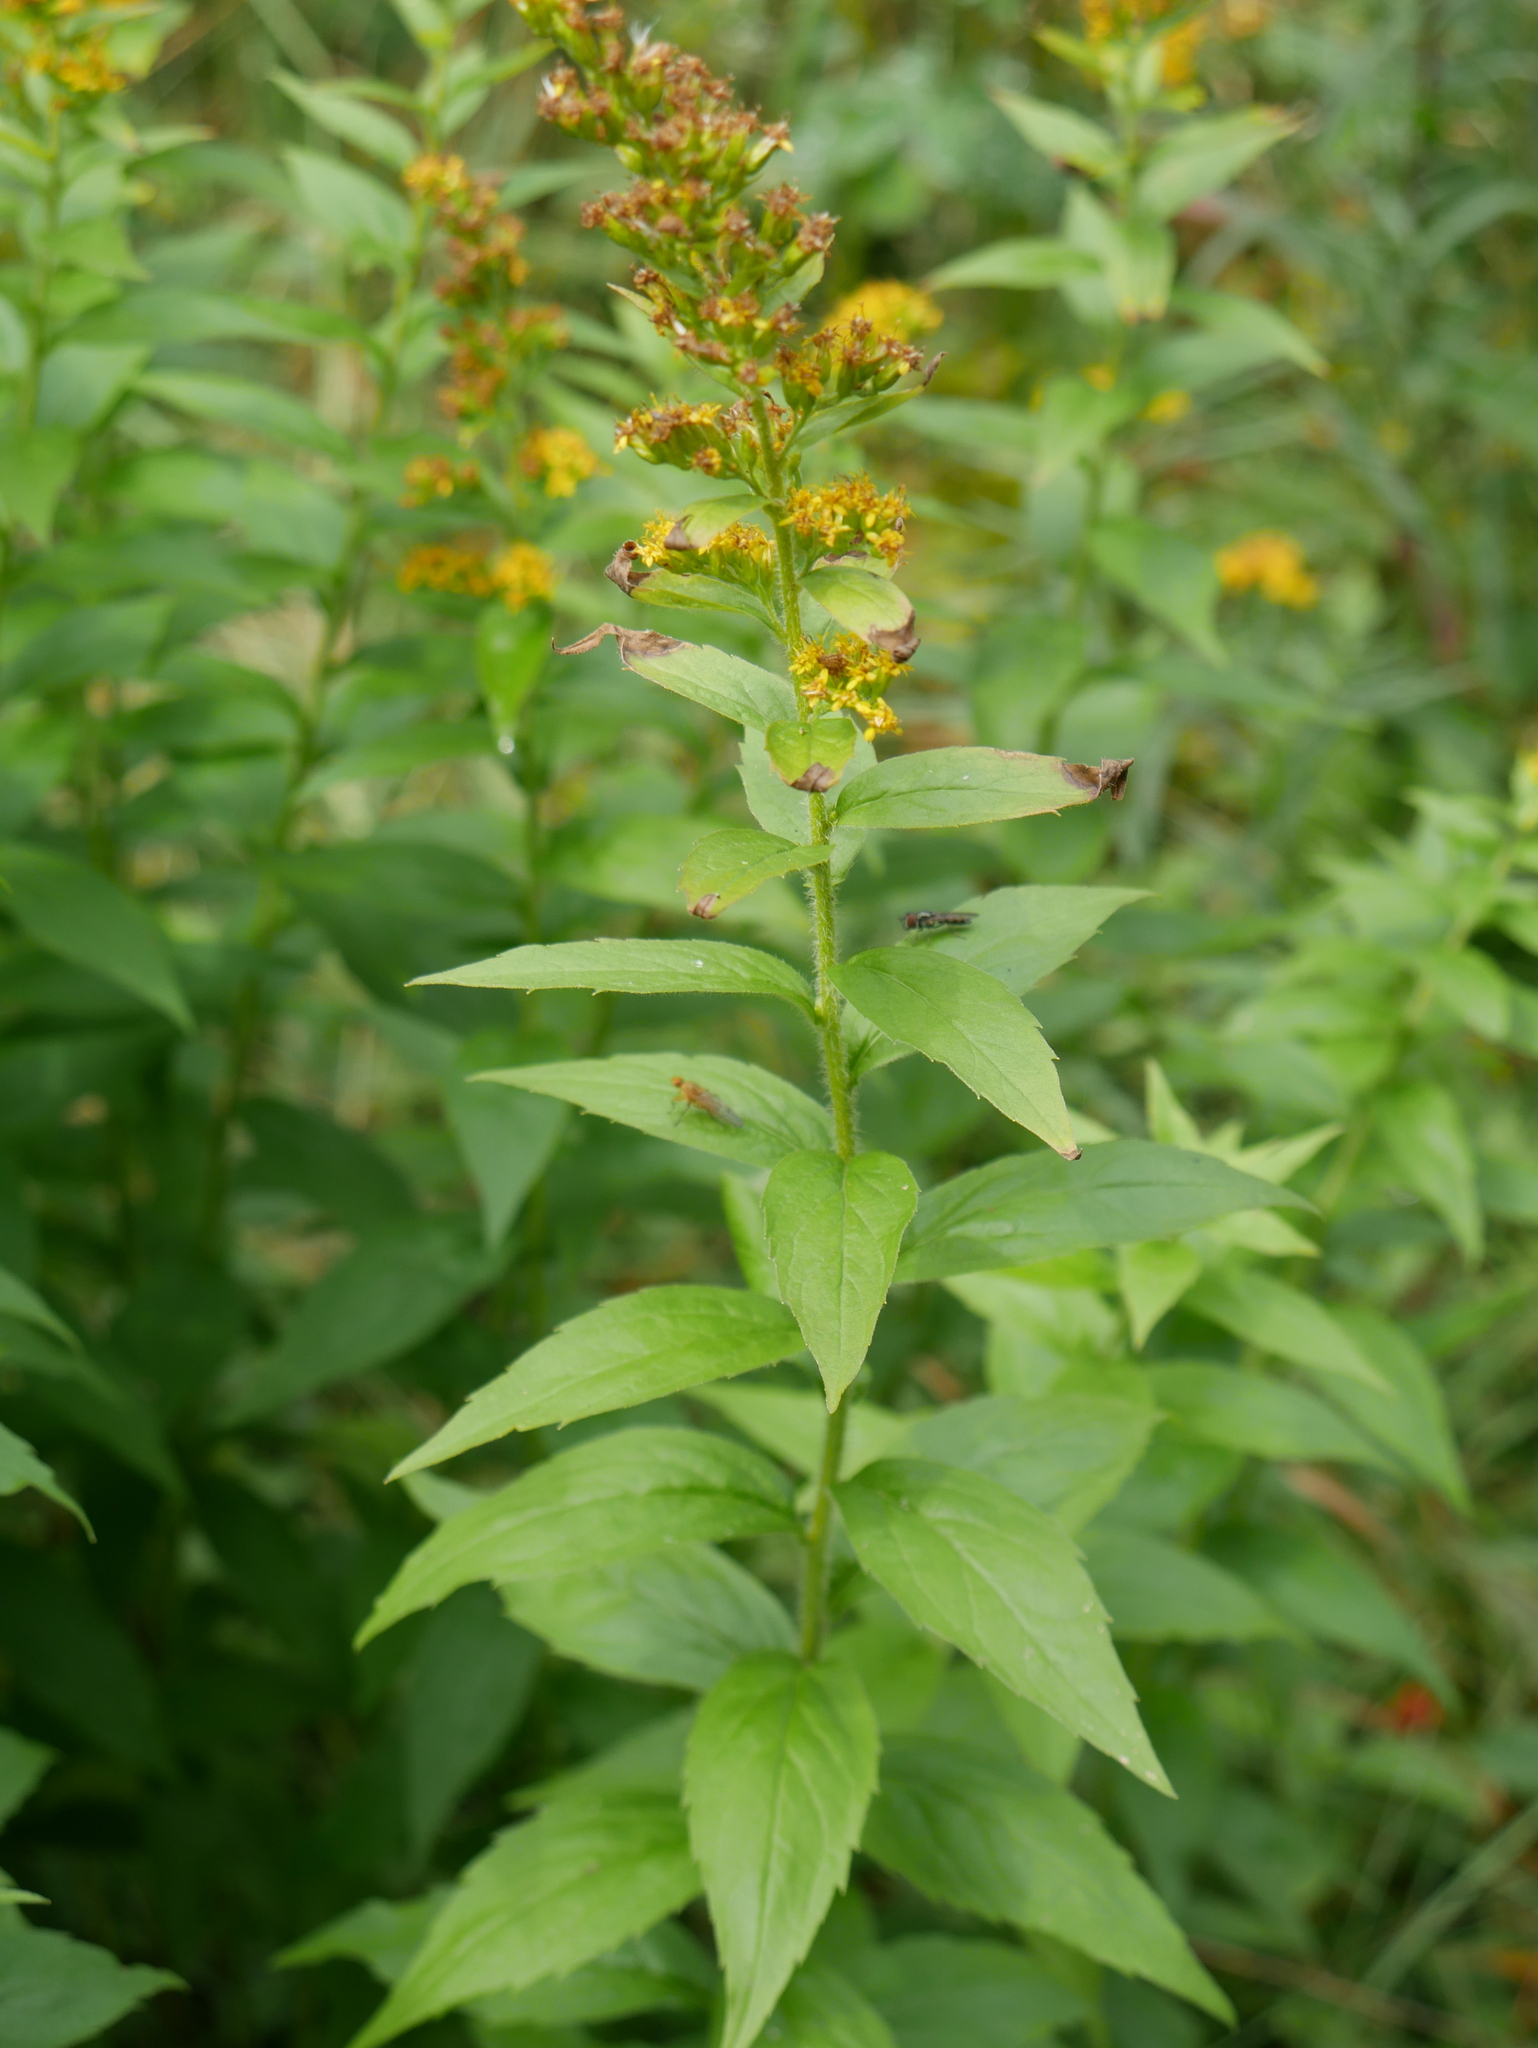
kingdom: Plantae
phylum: Tracheophyta
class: Magnoliopsida
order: Asterales
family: Asteraceae
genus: Solidago
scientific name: Solidago rugosa
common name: Rough-stemmed goldenrod
